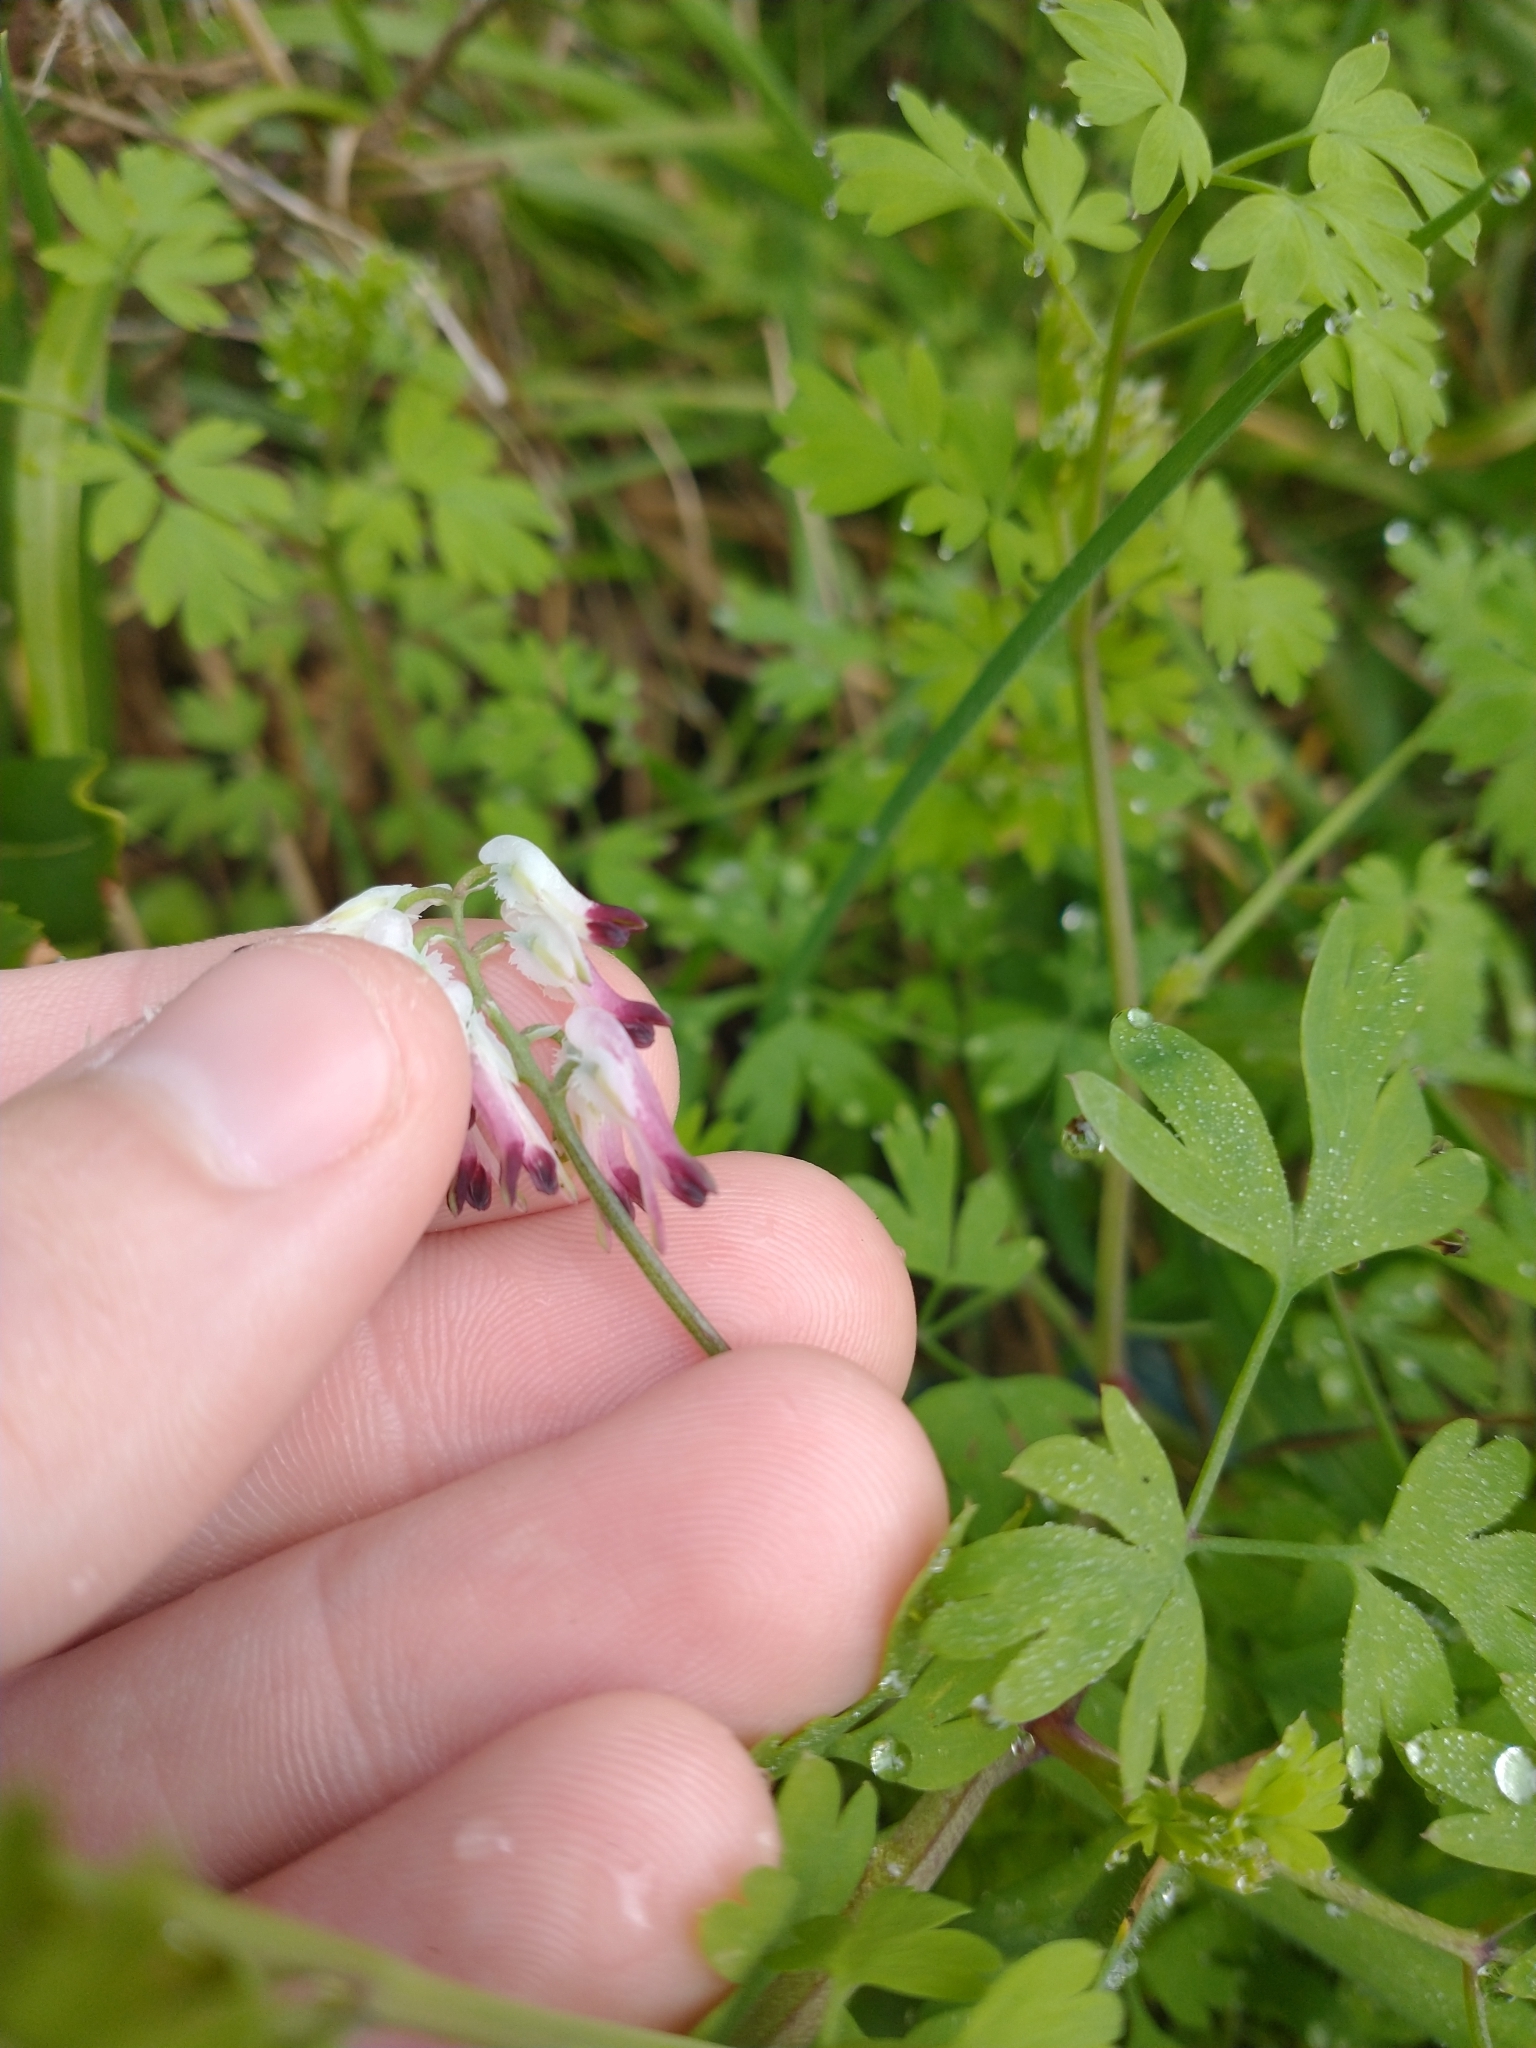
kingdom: Plantae
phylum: Tracheophyta
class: Magnoliopsida
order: Ranunculales
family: Papaveraceae
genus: Fumaria
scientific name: Fumaria capreolata
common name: White ramping-fumitory
